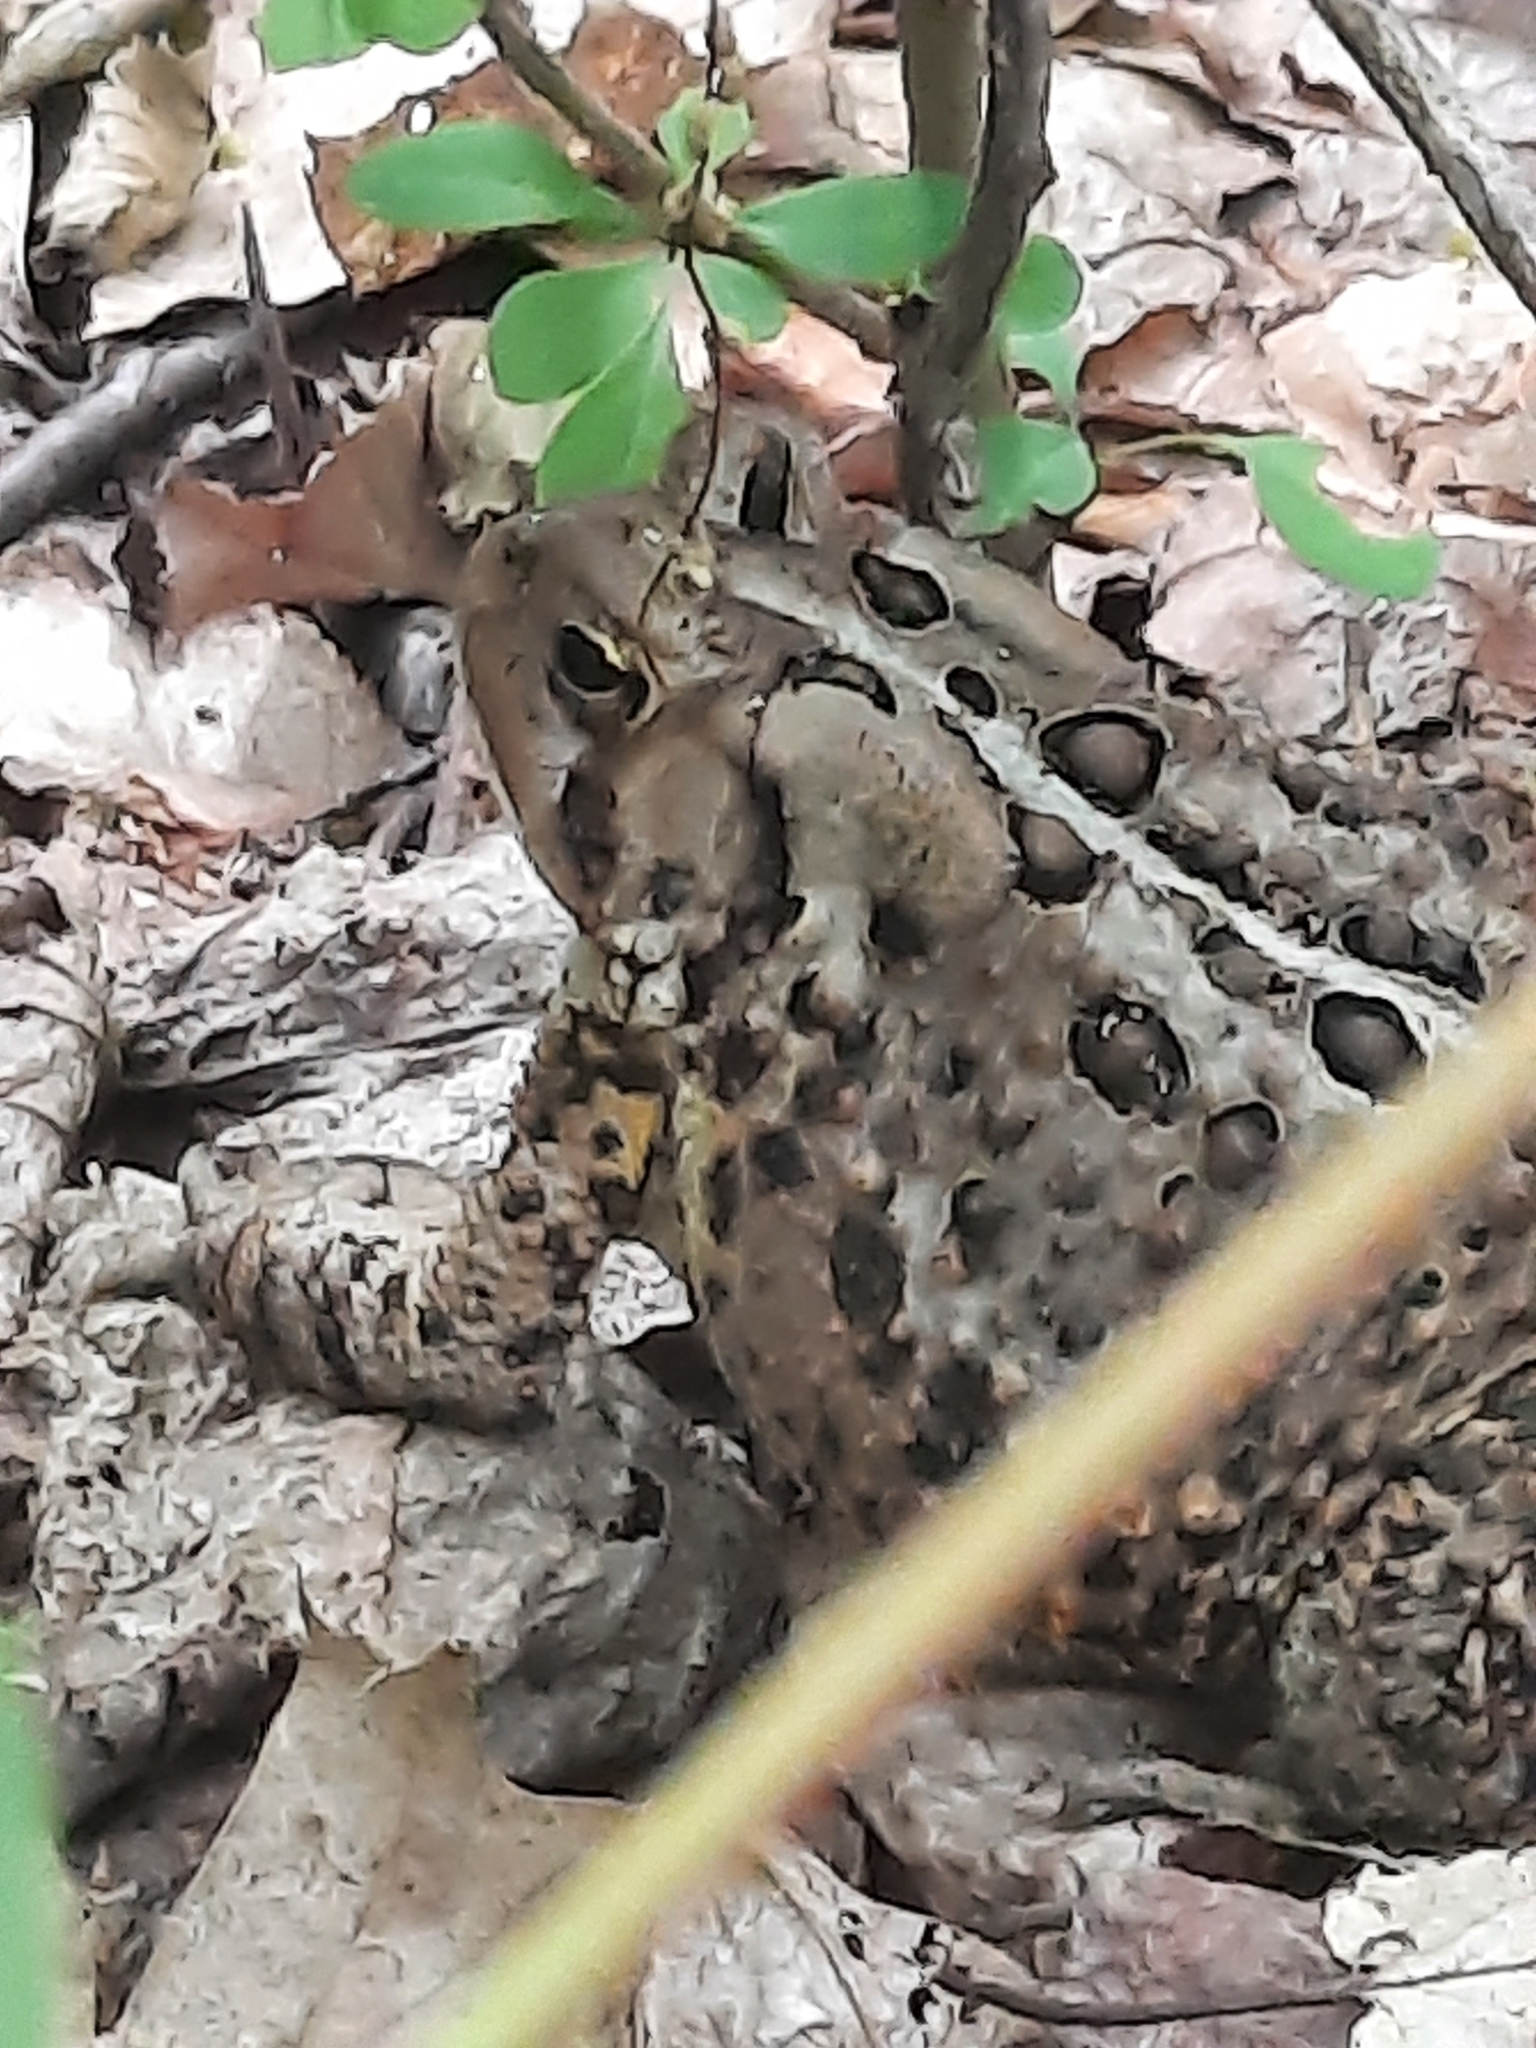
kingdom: Animalia
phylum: Chordata
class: Amphibia
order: Anura
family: Bufonidae
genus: Anaxyrus
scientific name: Anaxyrus americanus
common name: American toad
